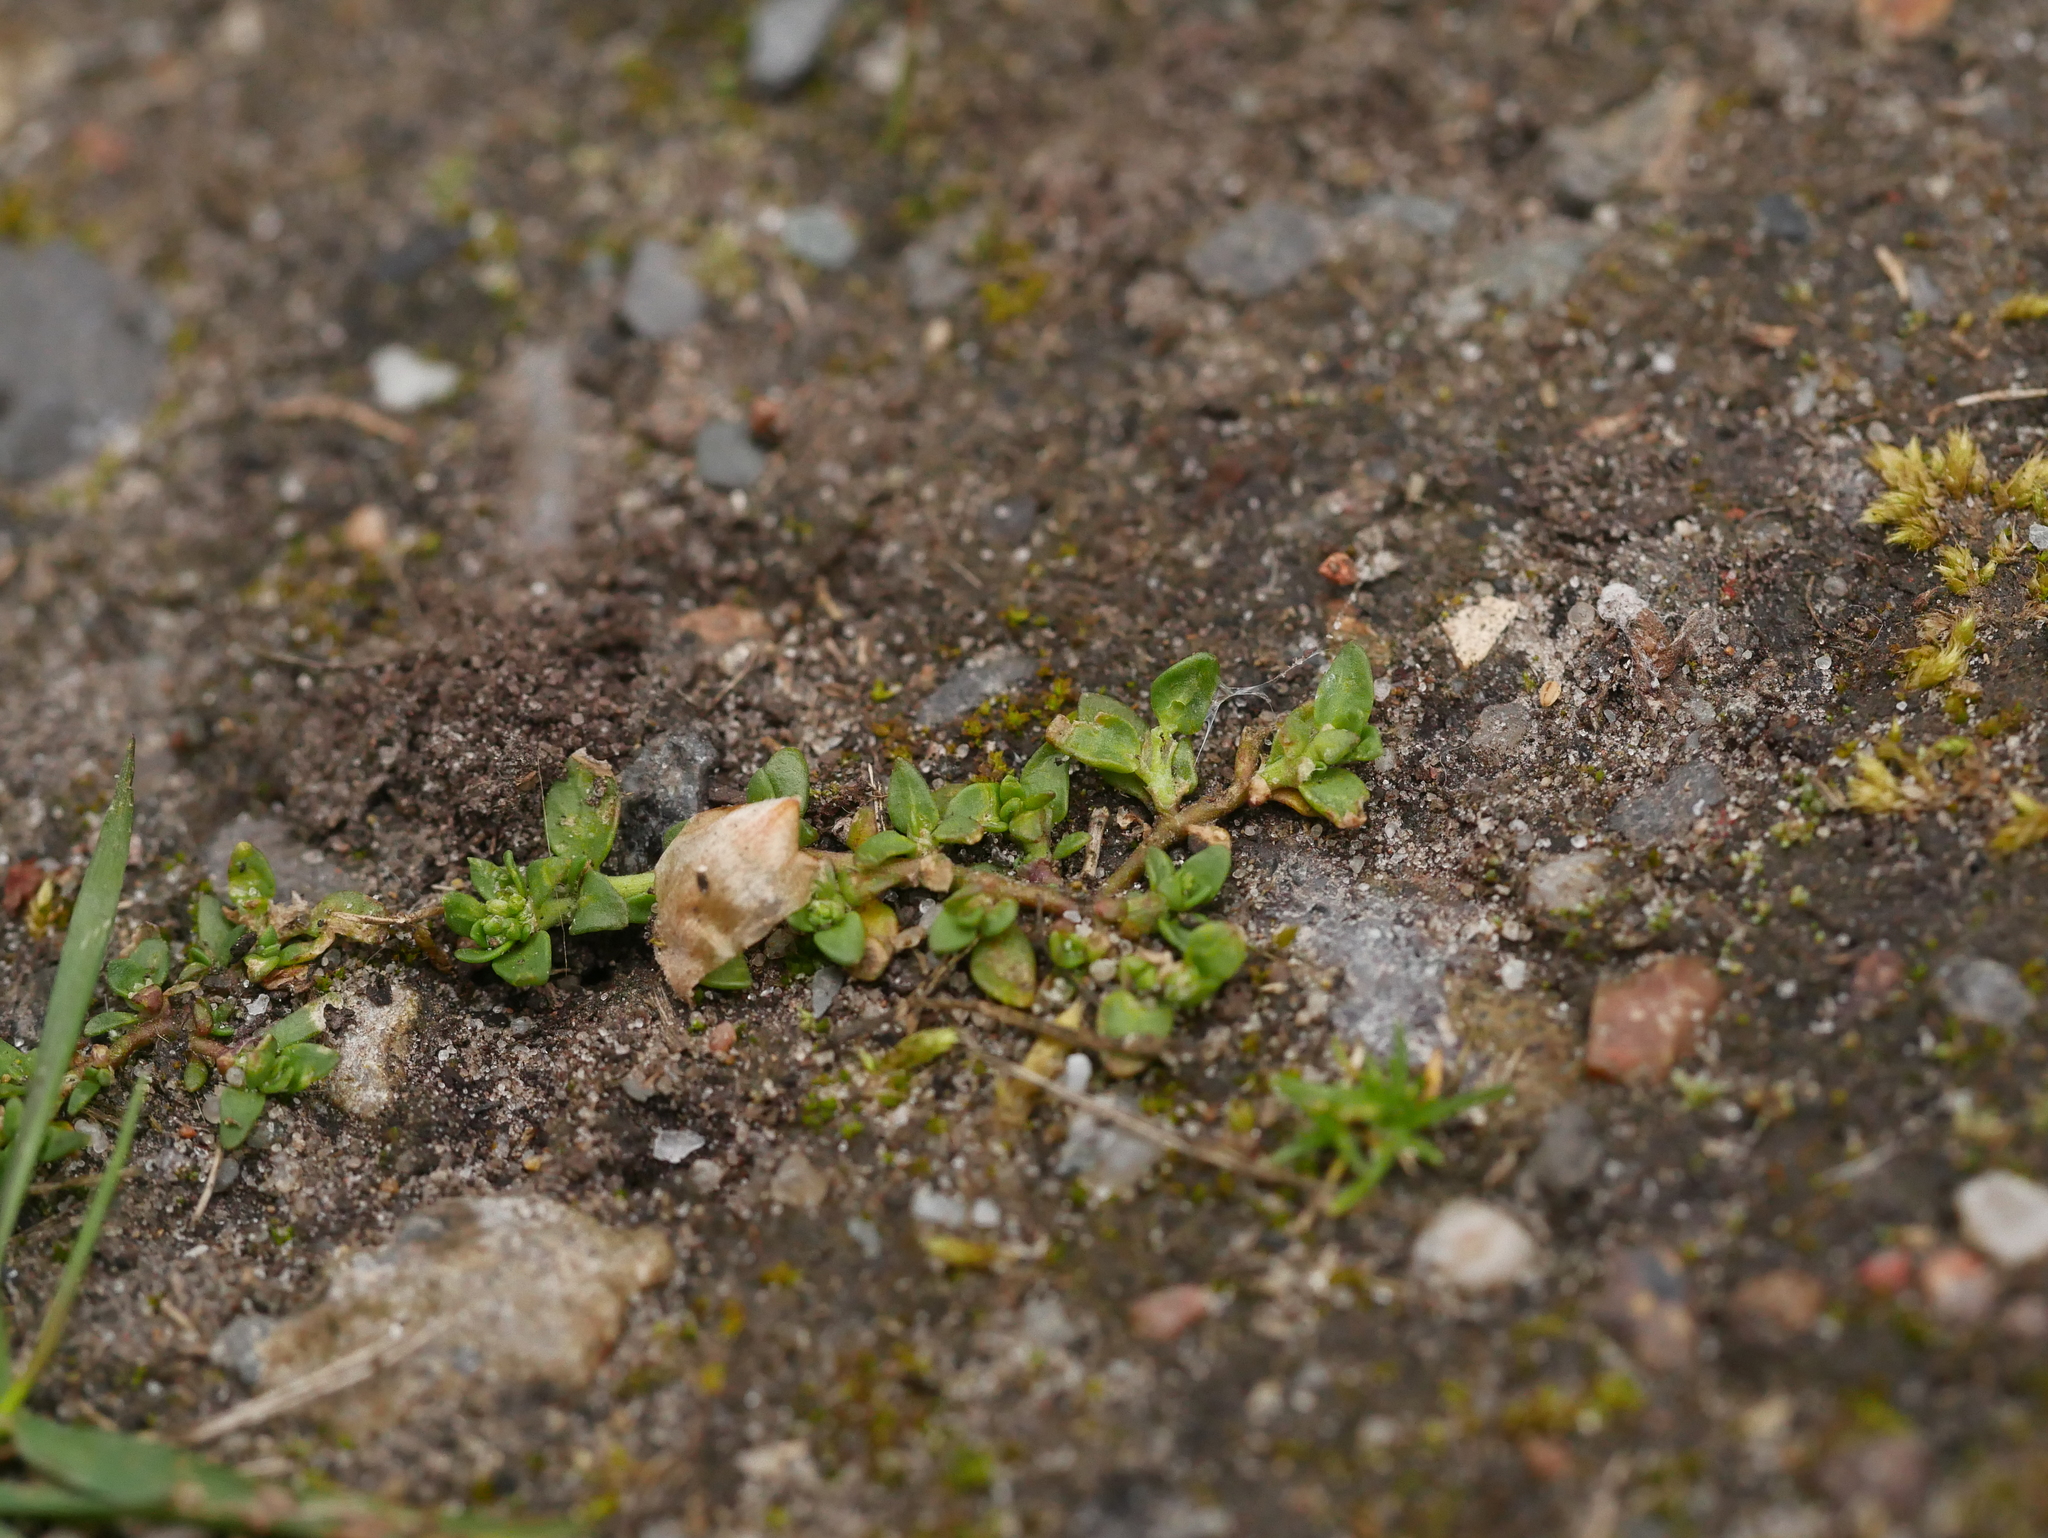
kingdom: Plantae
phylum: Tracheophyta
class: Magnoliopsida
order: Caryophyllales
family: Caryophyllaceae
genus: Herniaria
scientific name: Herniaria glabra
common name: Smooth rupturewort
